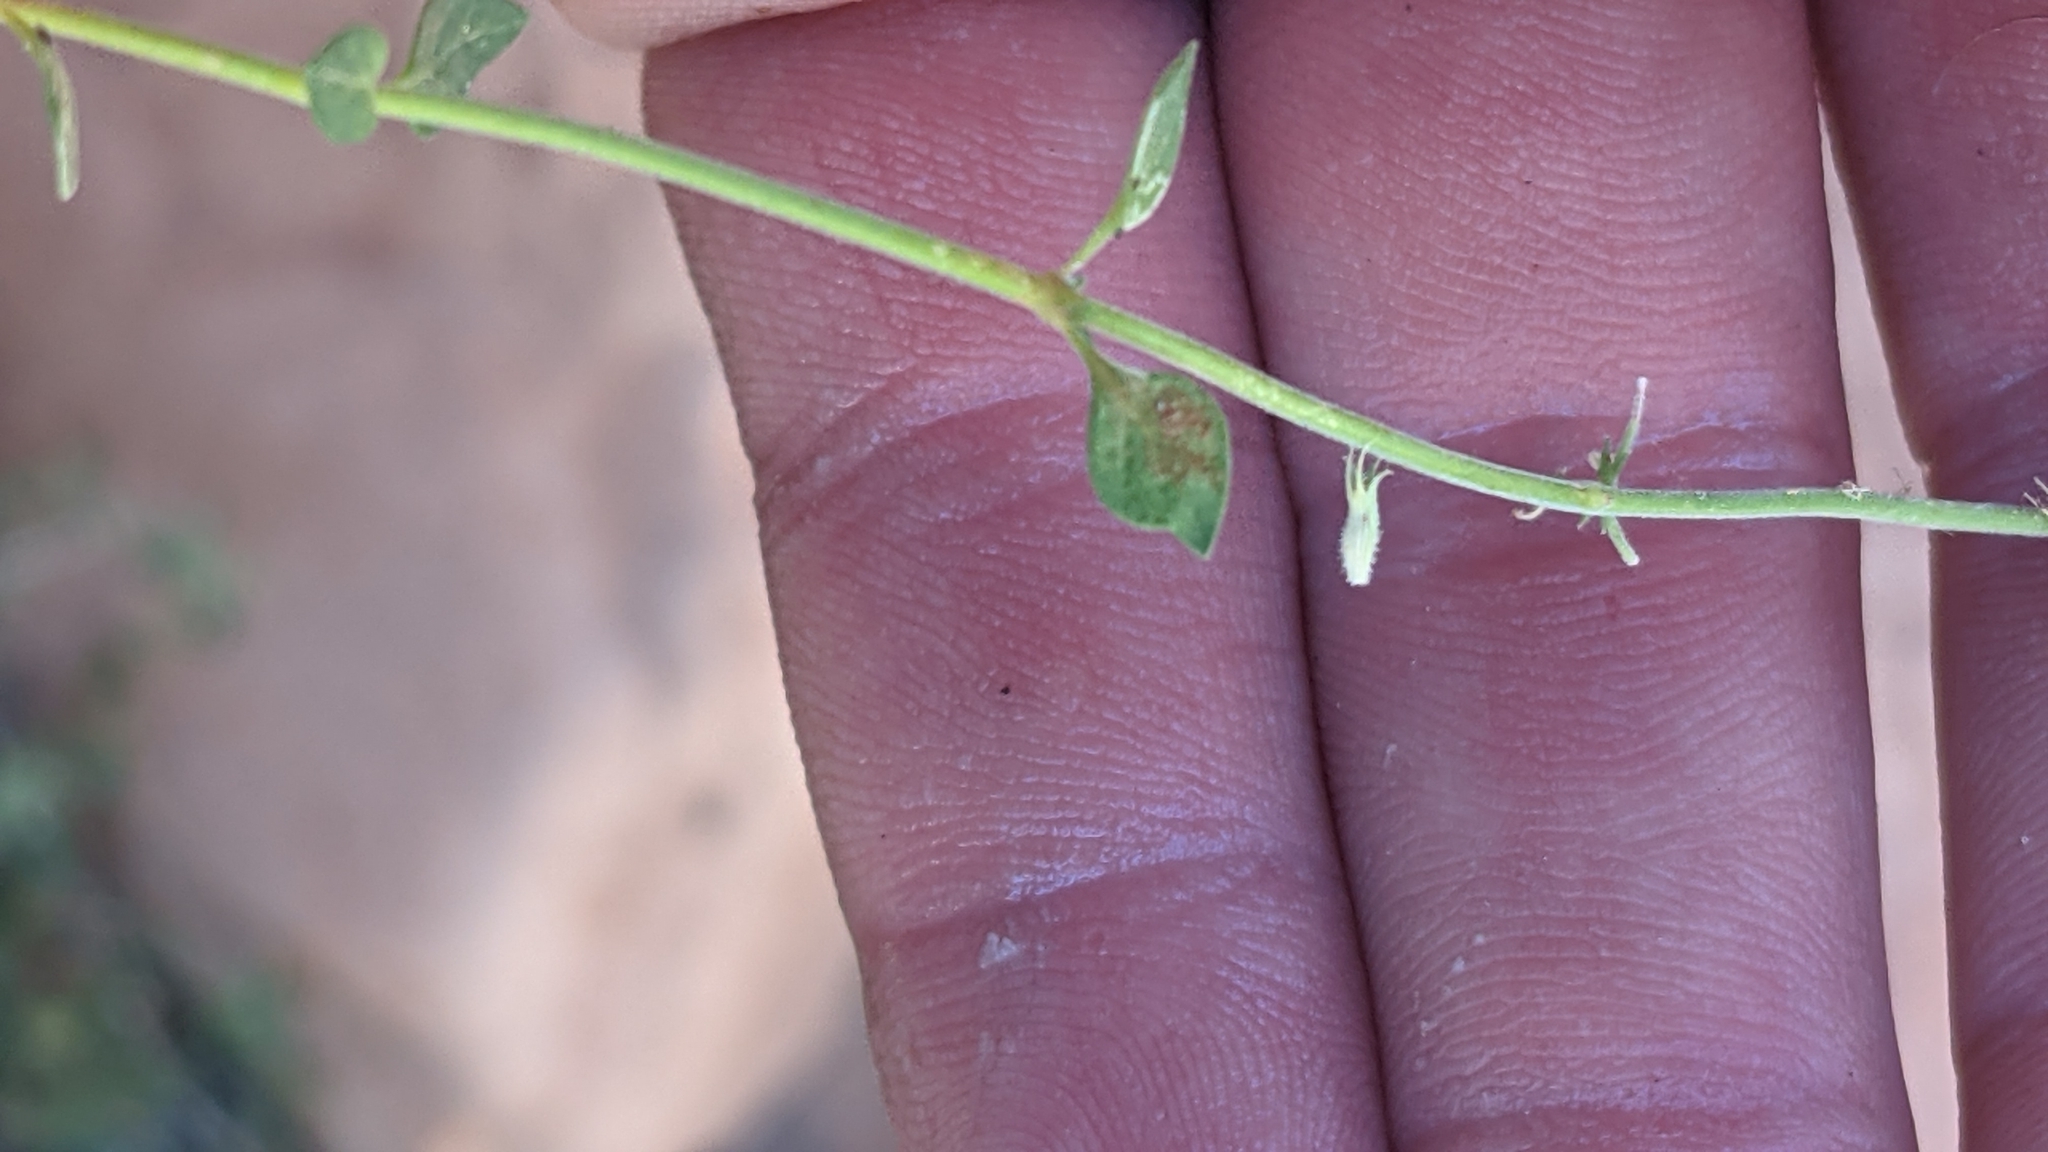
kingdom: Plantae
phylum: Tracheophyta
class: Magnoliopsida
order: Lamiales
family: Lamiaceae
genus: Hedeoma
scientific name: Hedeoma nana
